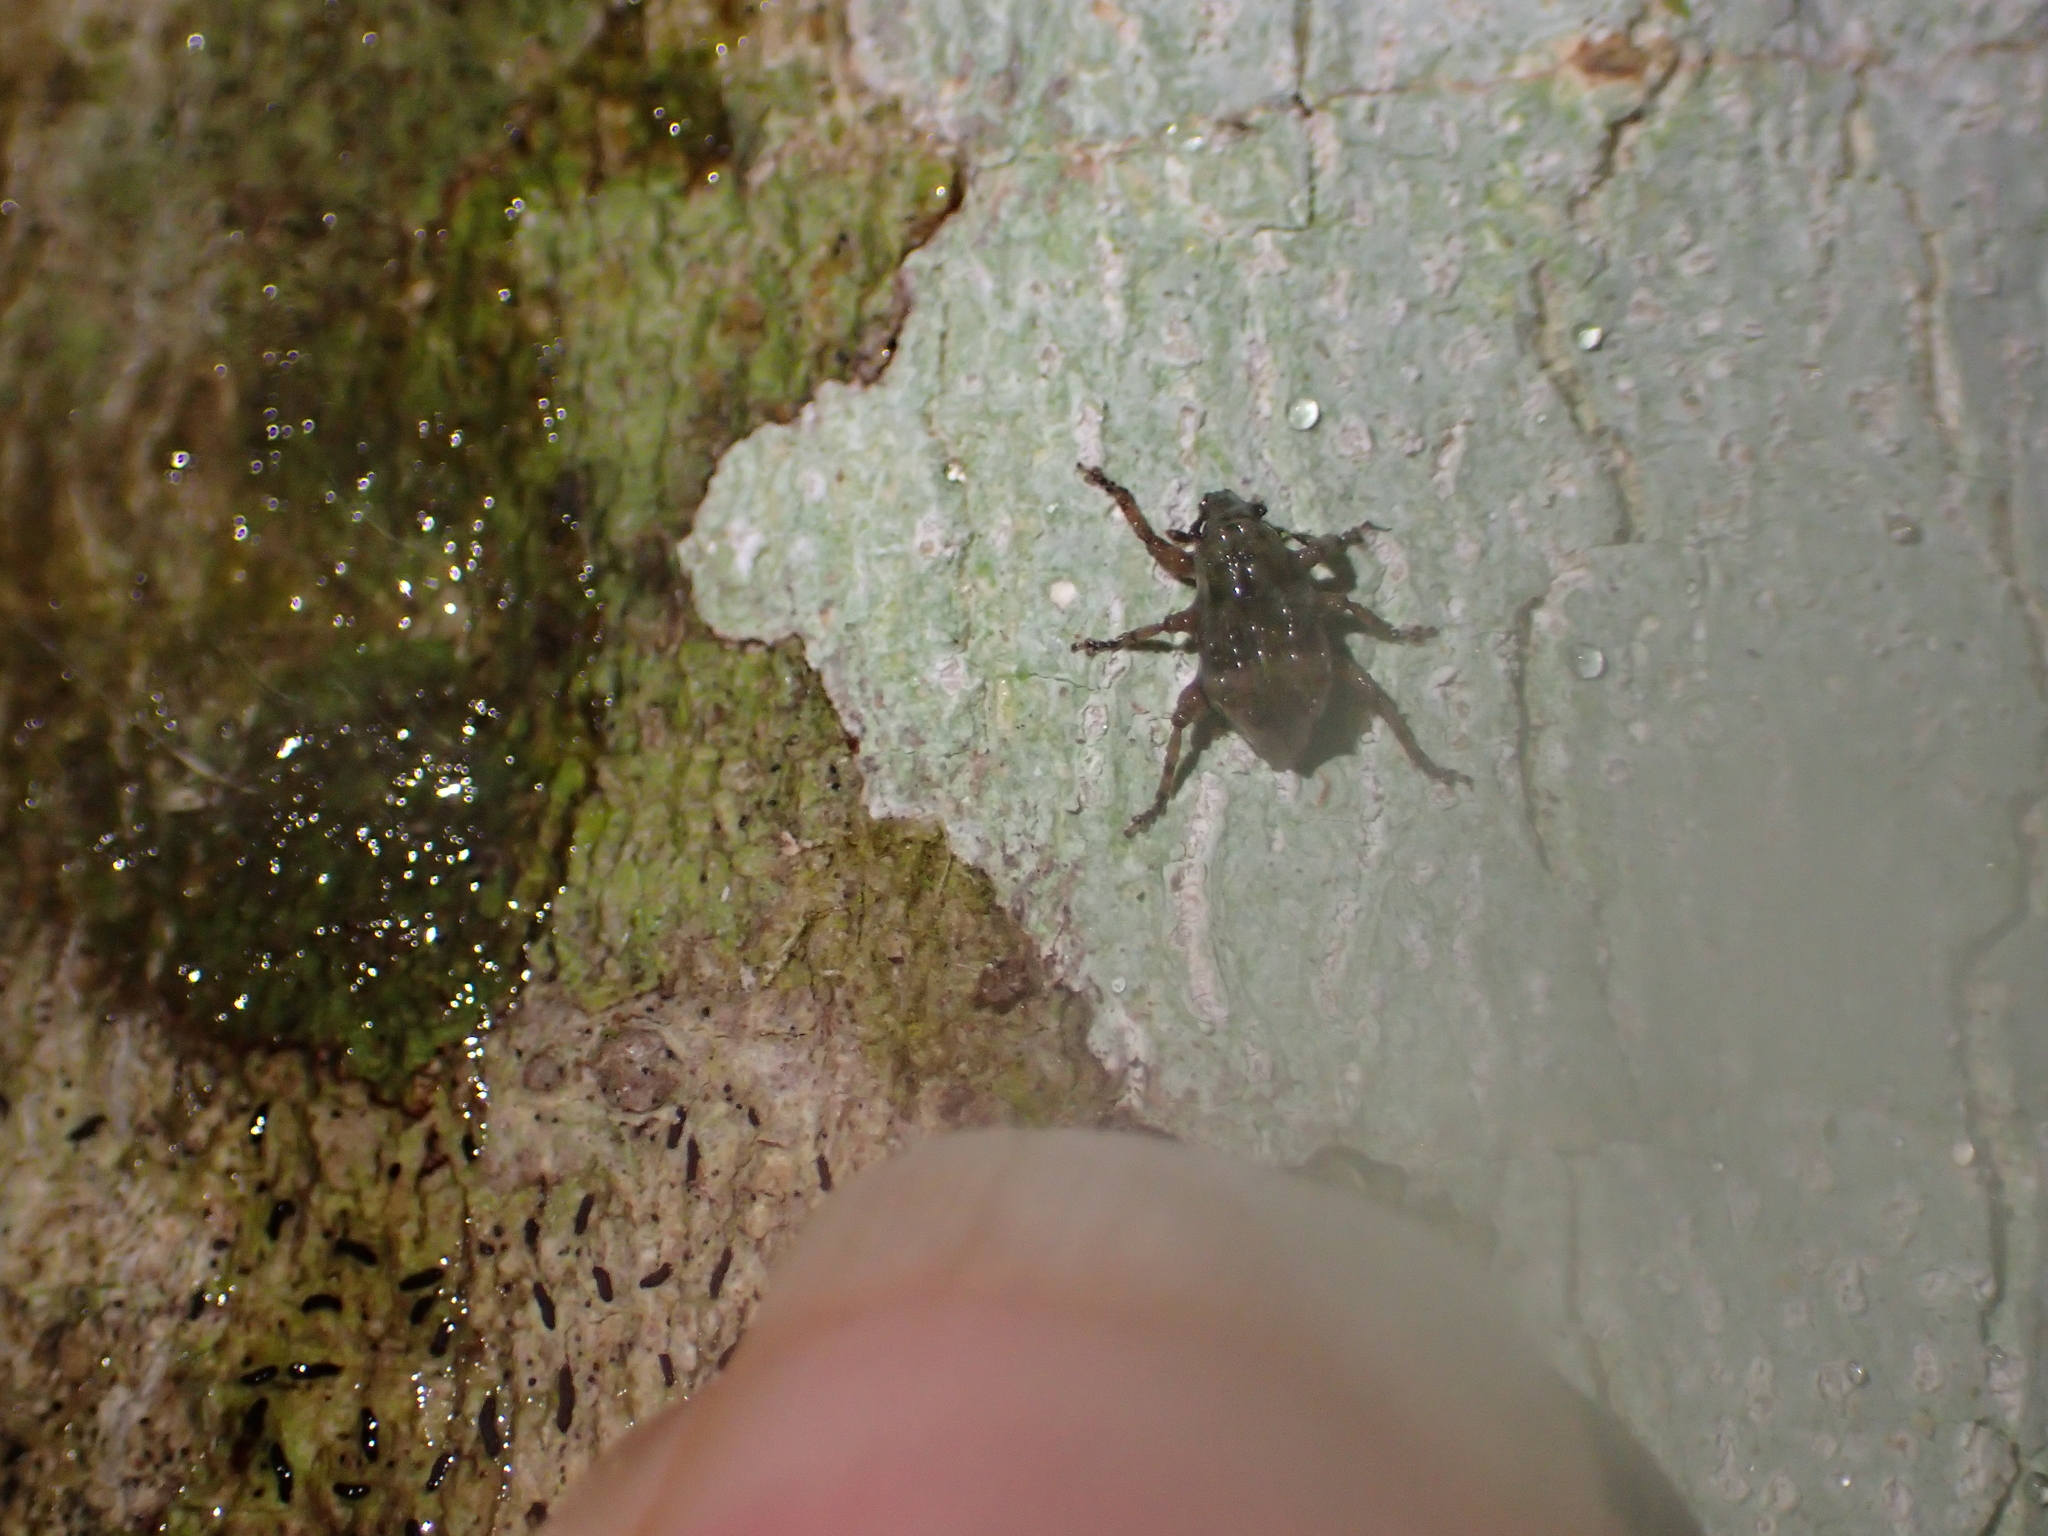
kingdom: Animalia
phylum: Arthropoda
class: Insecta
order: Coleoptera
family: Curculionidae
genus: Brachyolus
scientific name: Brachyolus punctatus
